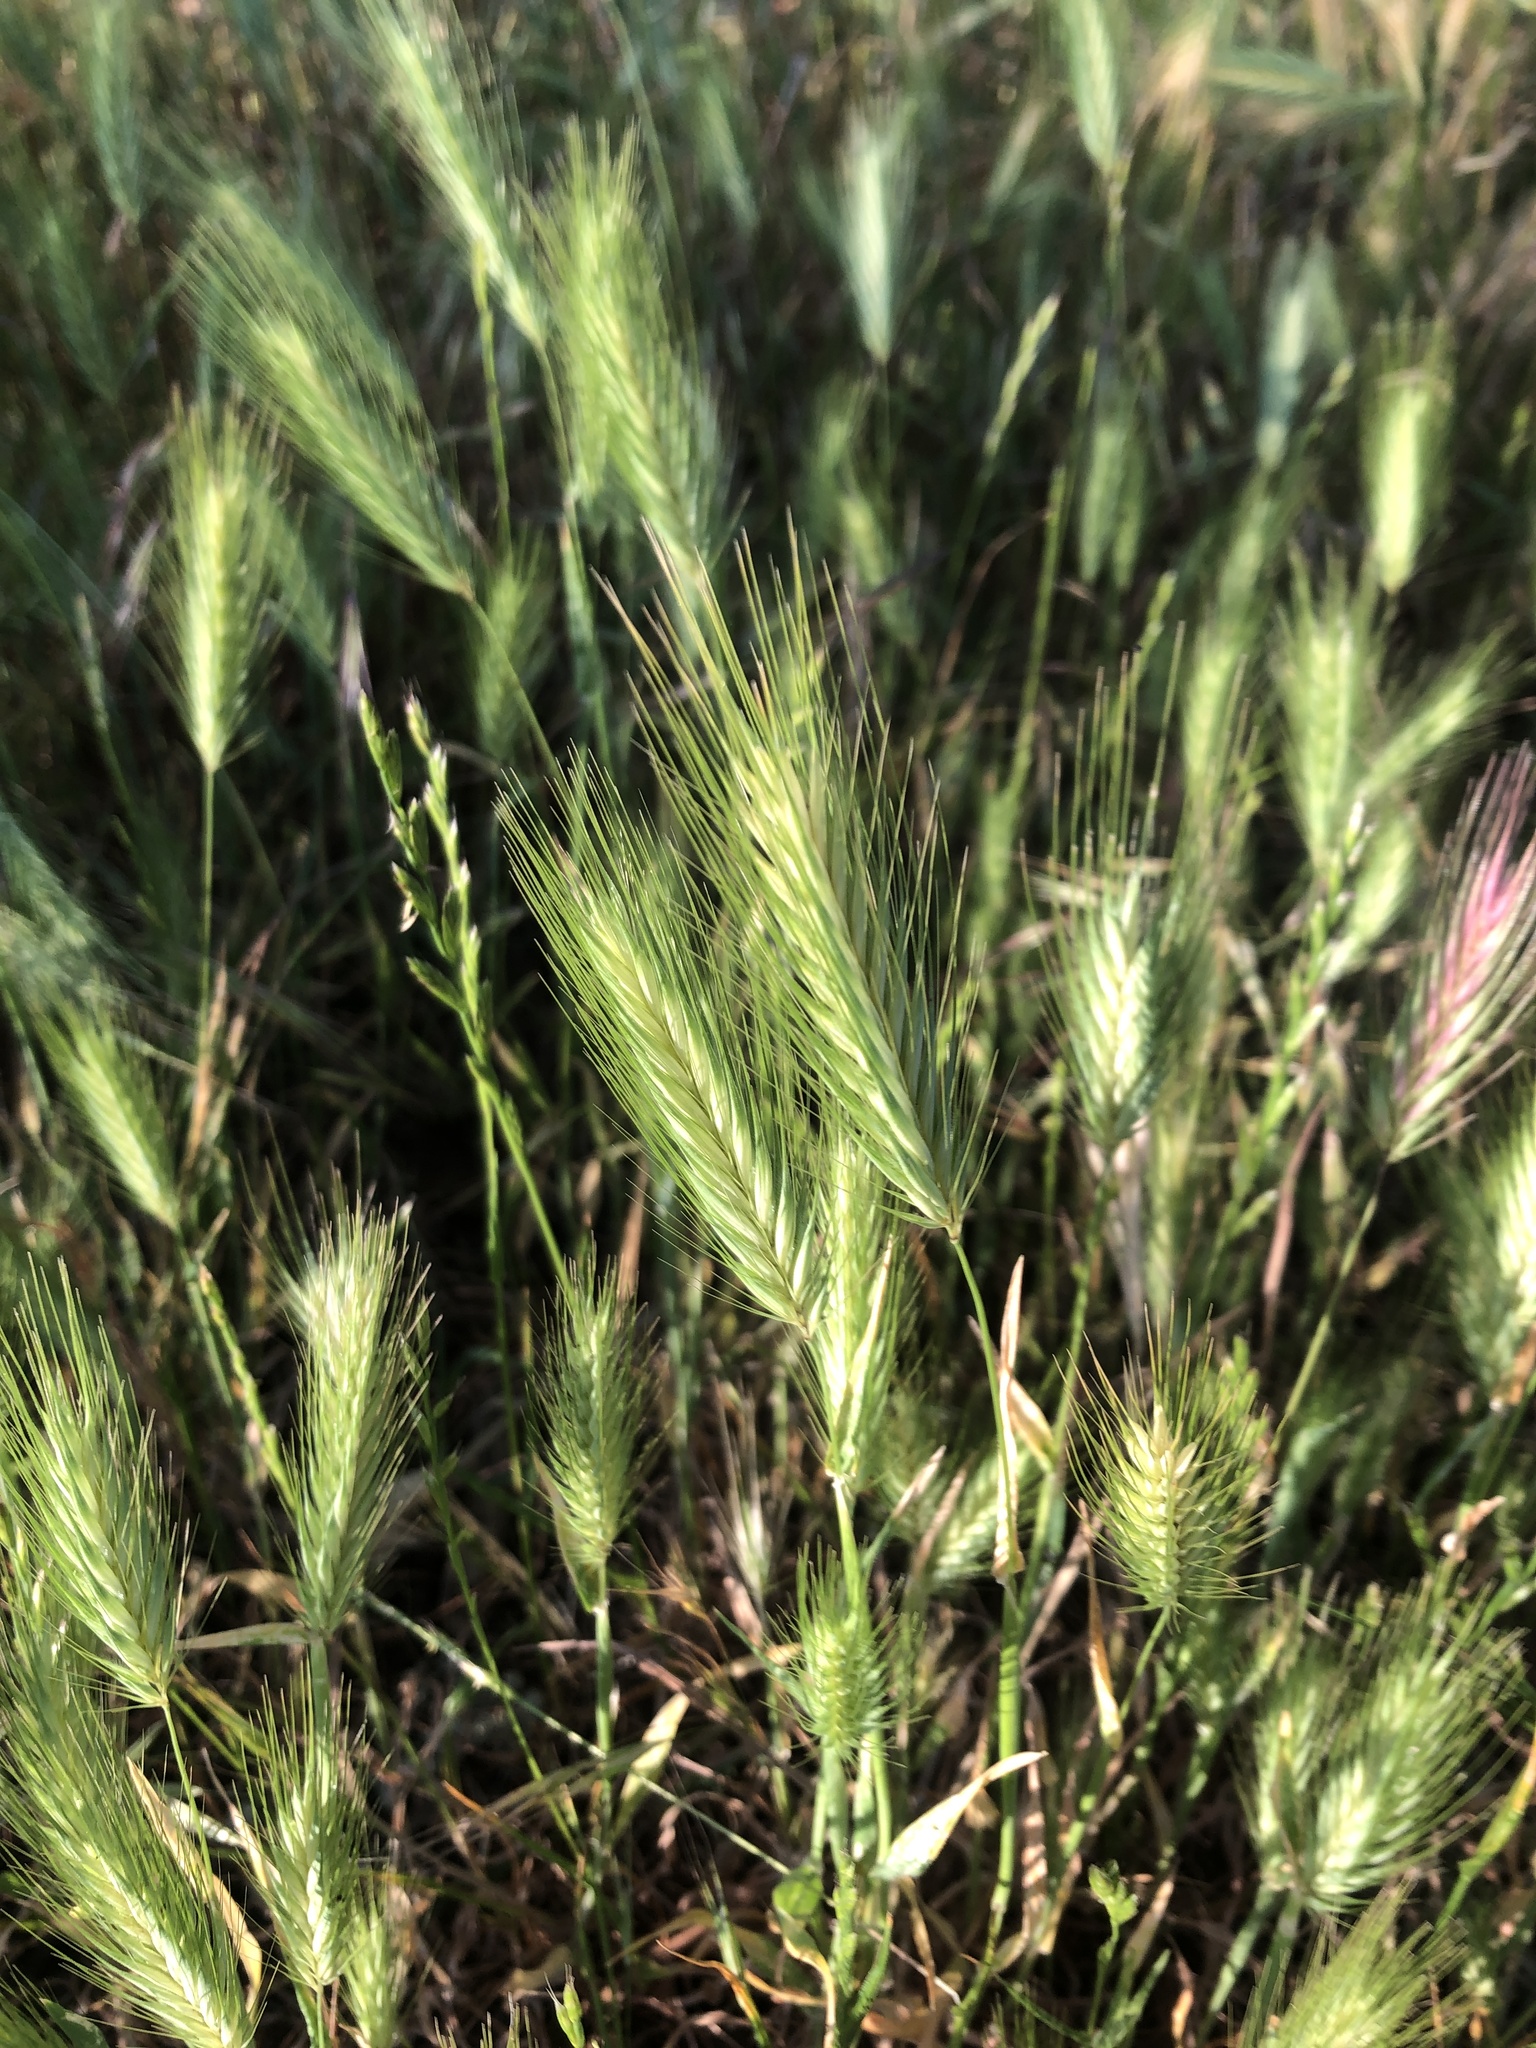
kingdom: Plantae
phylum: Tracheophyta
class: Liliopsida
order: Poales
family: Poaceae
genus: Hordeum
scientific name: Hordeum murinum
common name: Wall barley
